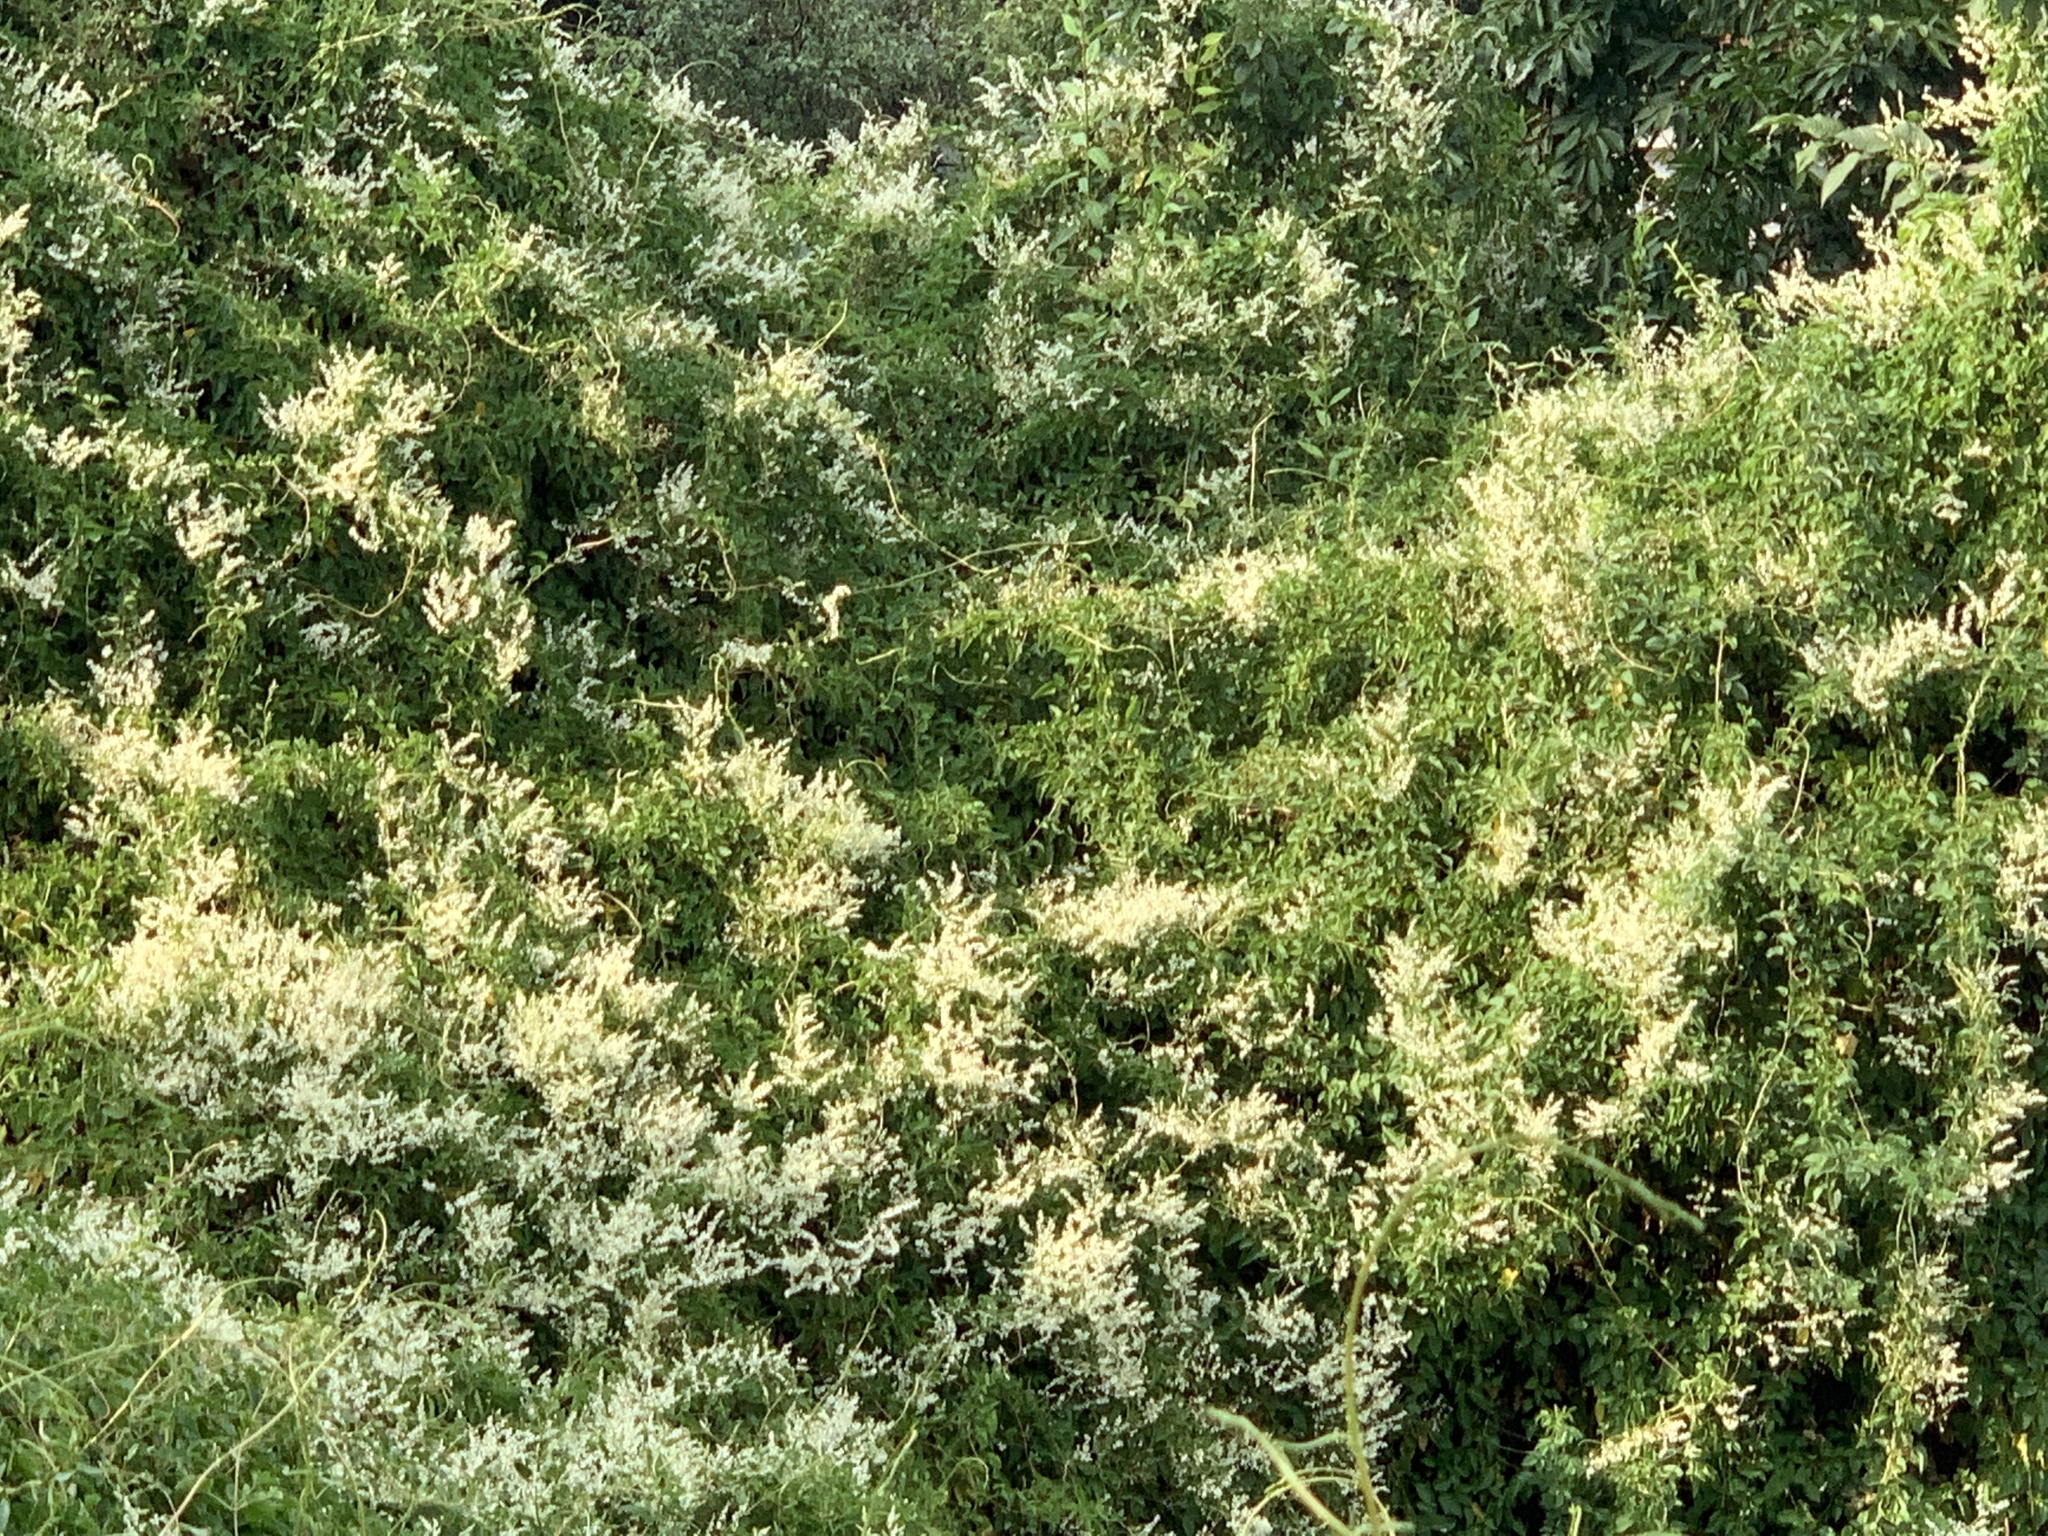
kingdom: Plantae
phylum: Tracheophyta
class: Magnoliopsida
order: Caryophyllales
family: Polygonaceae
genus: Fallopia
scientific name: Fallopia baldschuanica
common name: Russian-vine
